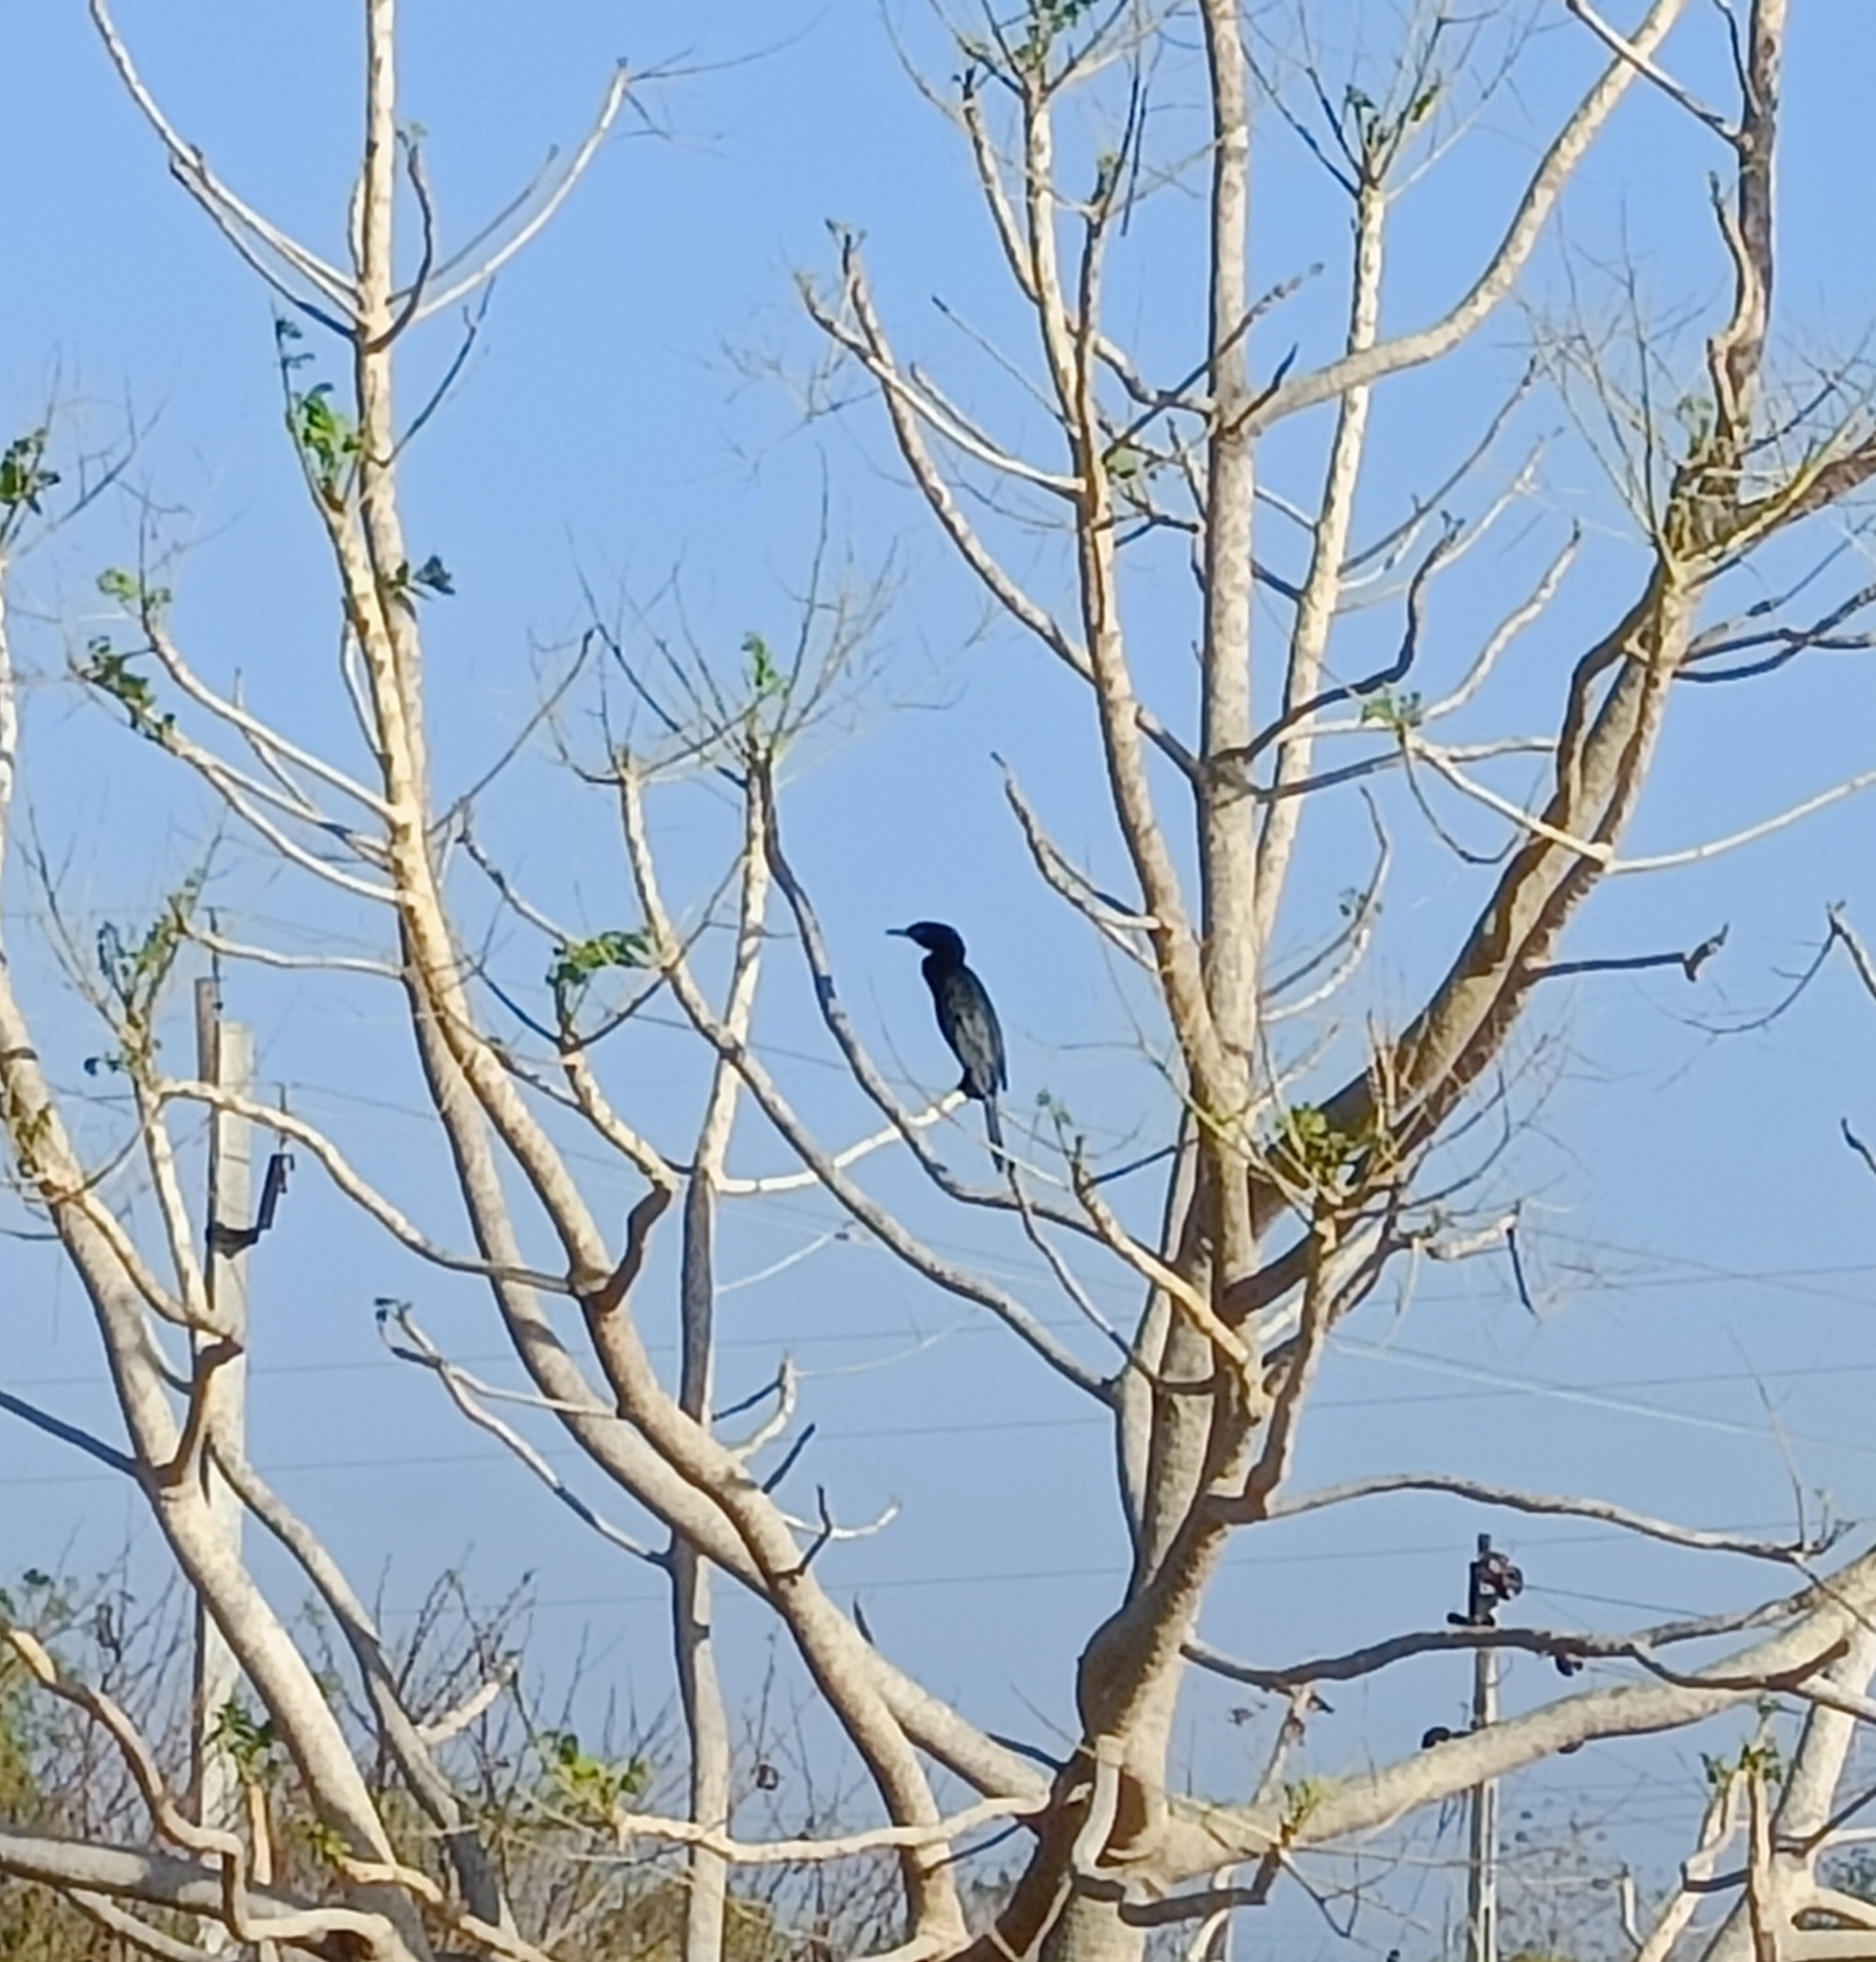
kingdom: Animalia
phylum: Chordata
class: Aves
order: Suliformes
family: Phalacrocoracidae
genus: Microcarbo
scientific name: Microcarbo niger
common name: Little cormorant
